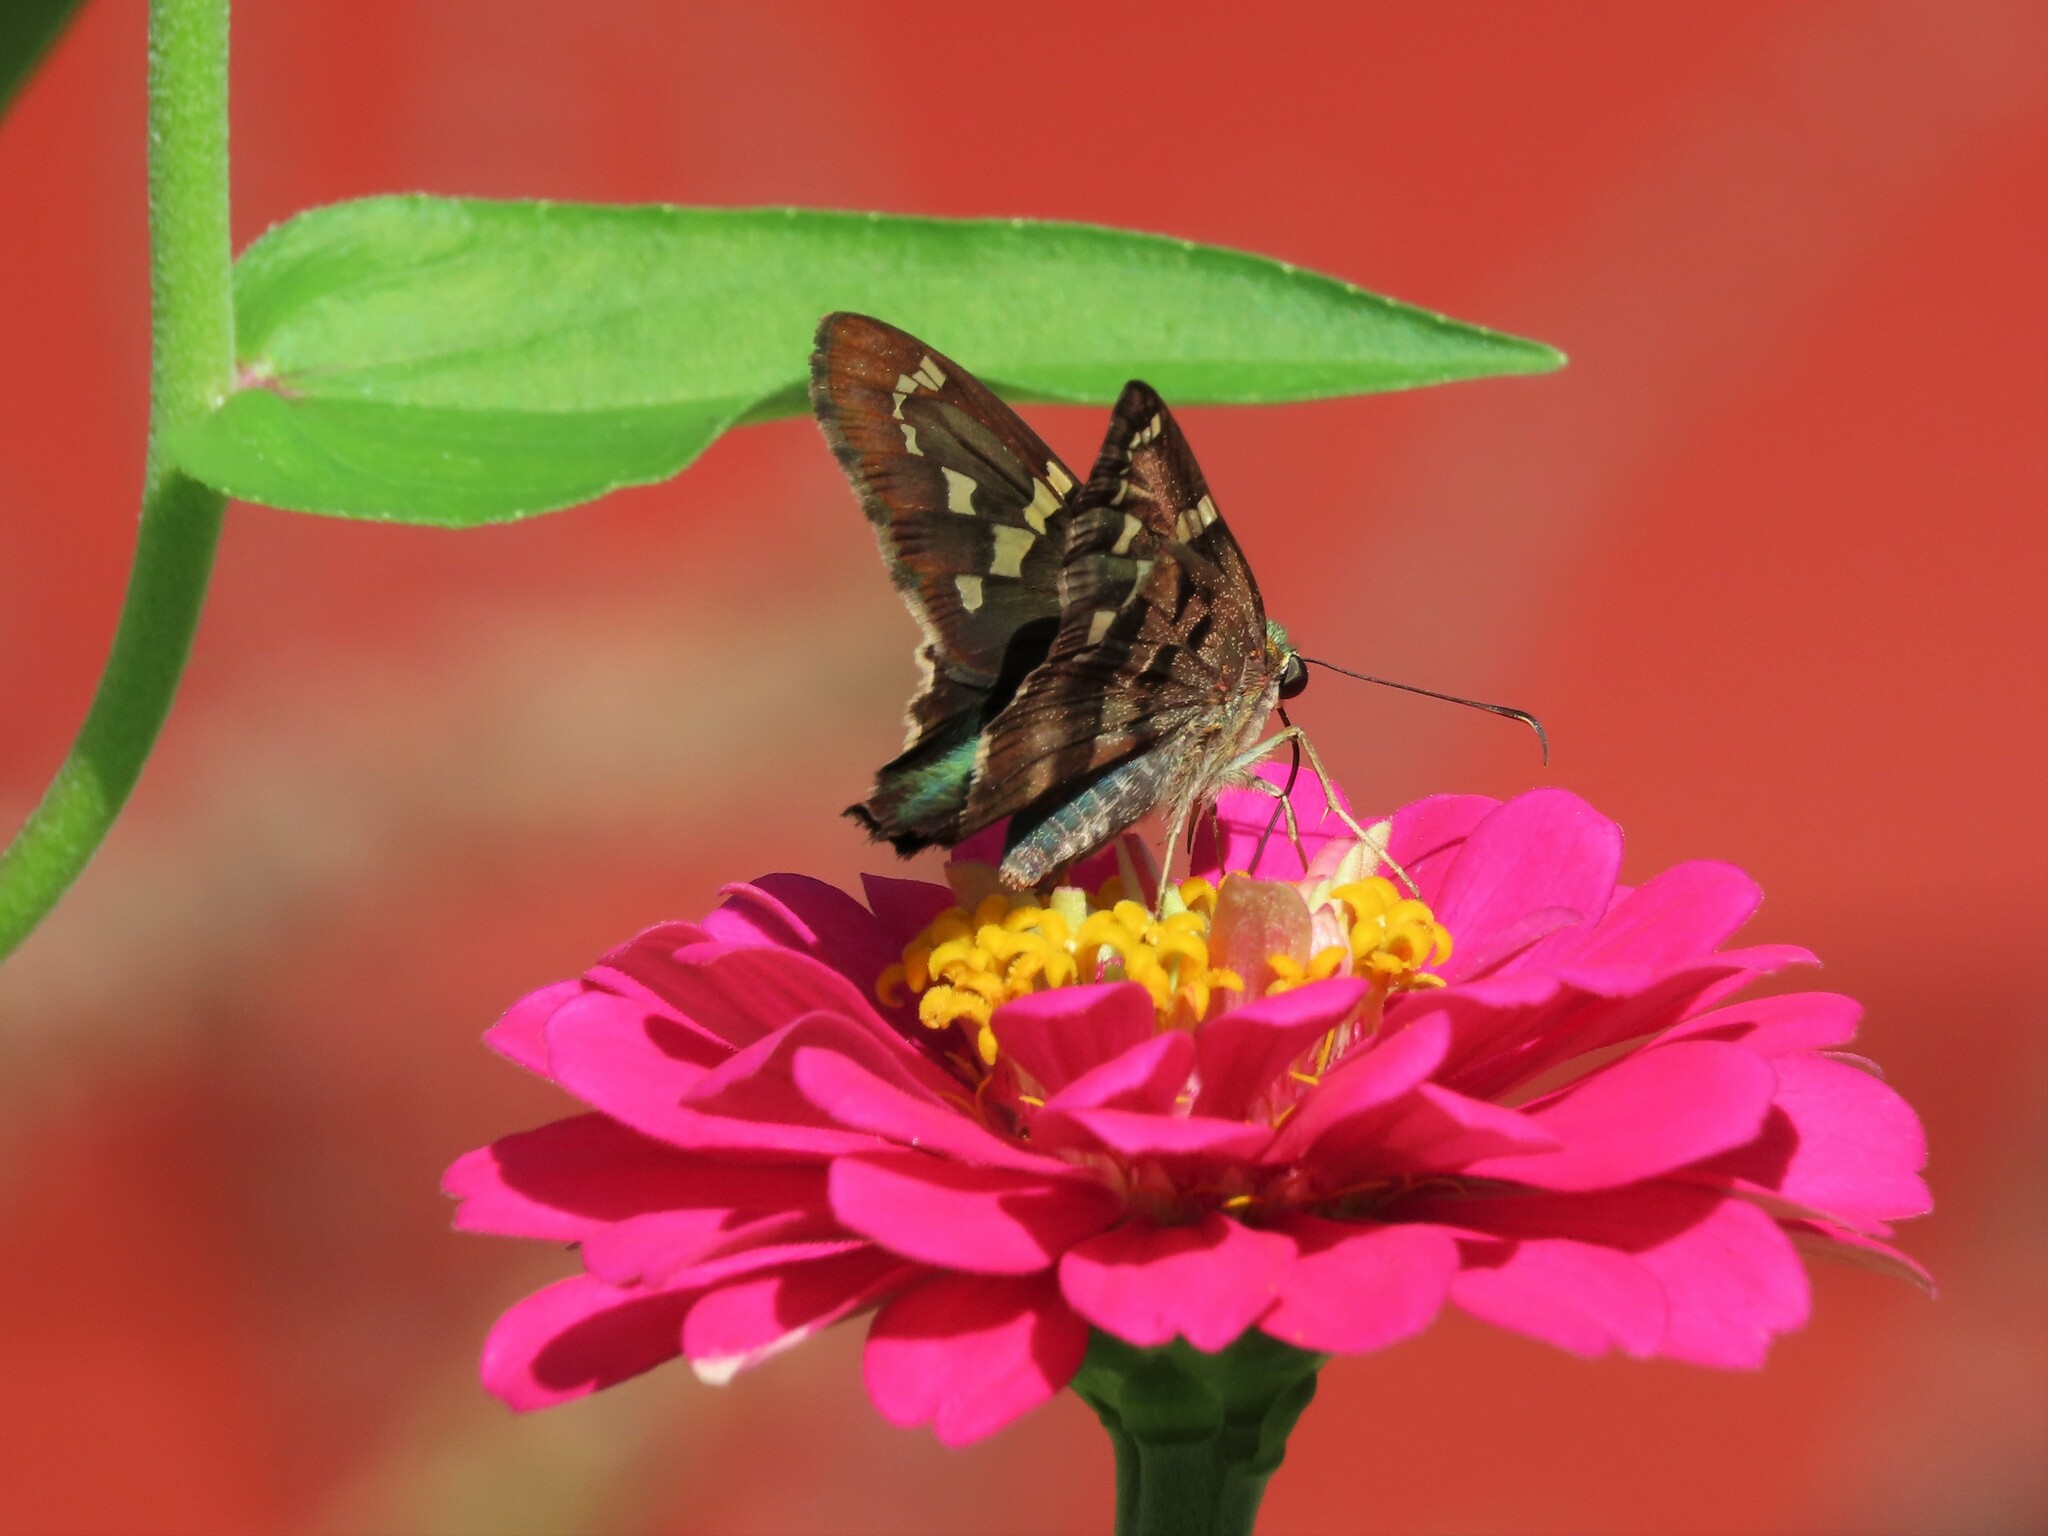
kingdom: Animalia
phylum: Arthropoda
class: Insecta
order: Lepidoptera
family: Hesperiidae
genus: Urbanus
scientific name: Urbanus proteus
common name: Long-tailed skipper
